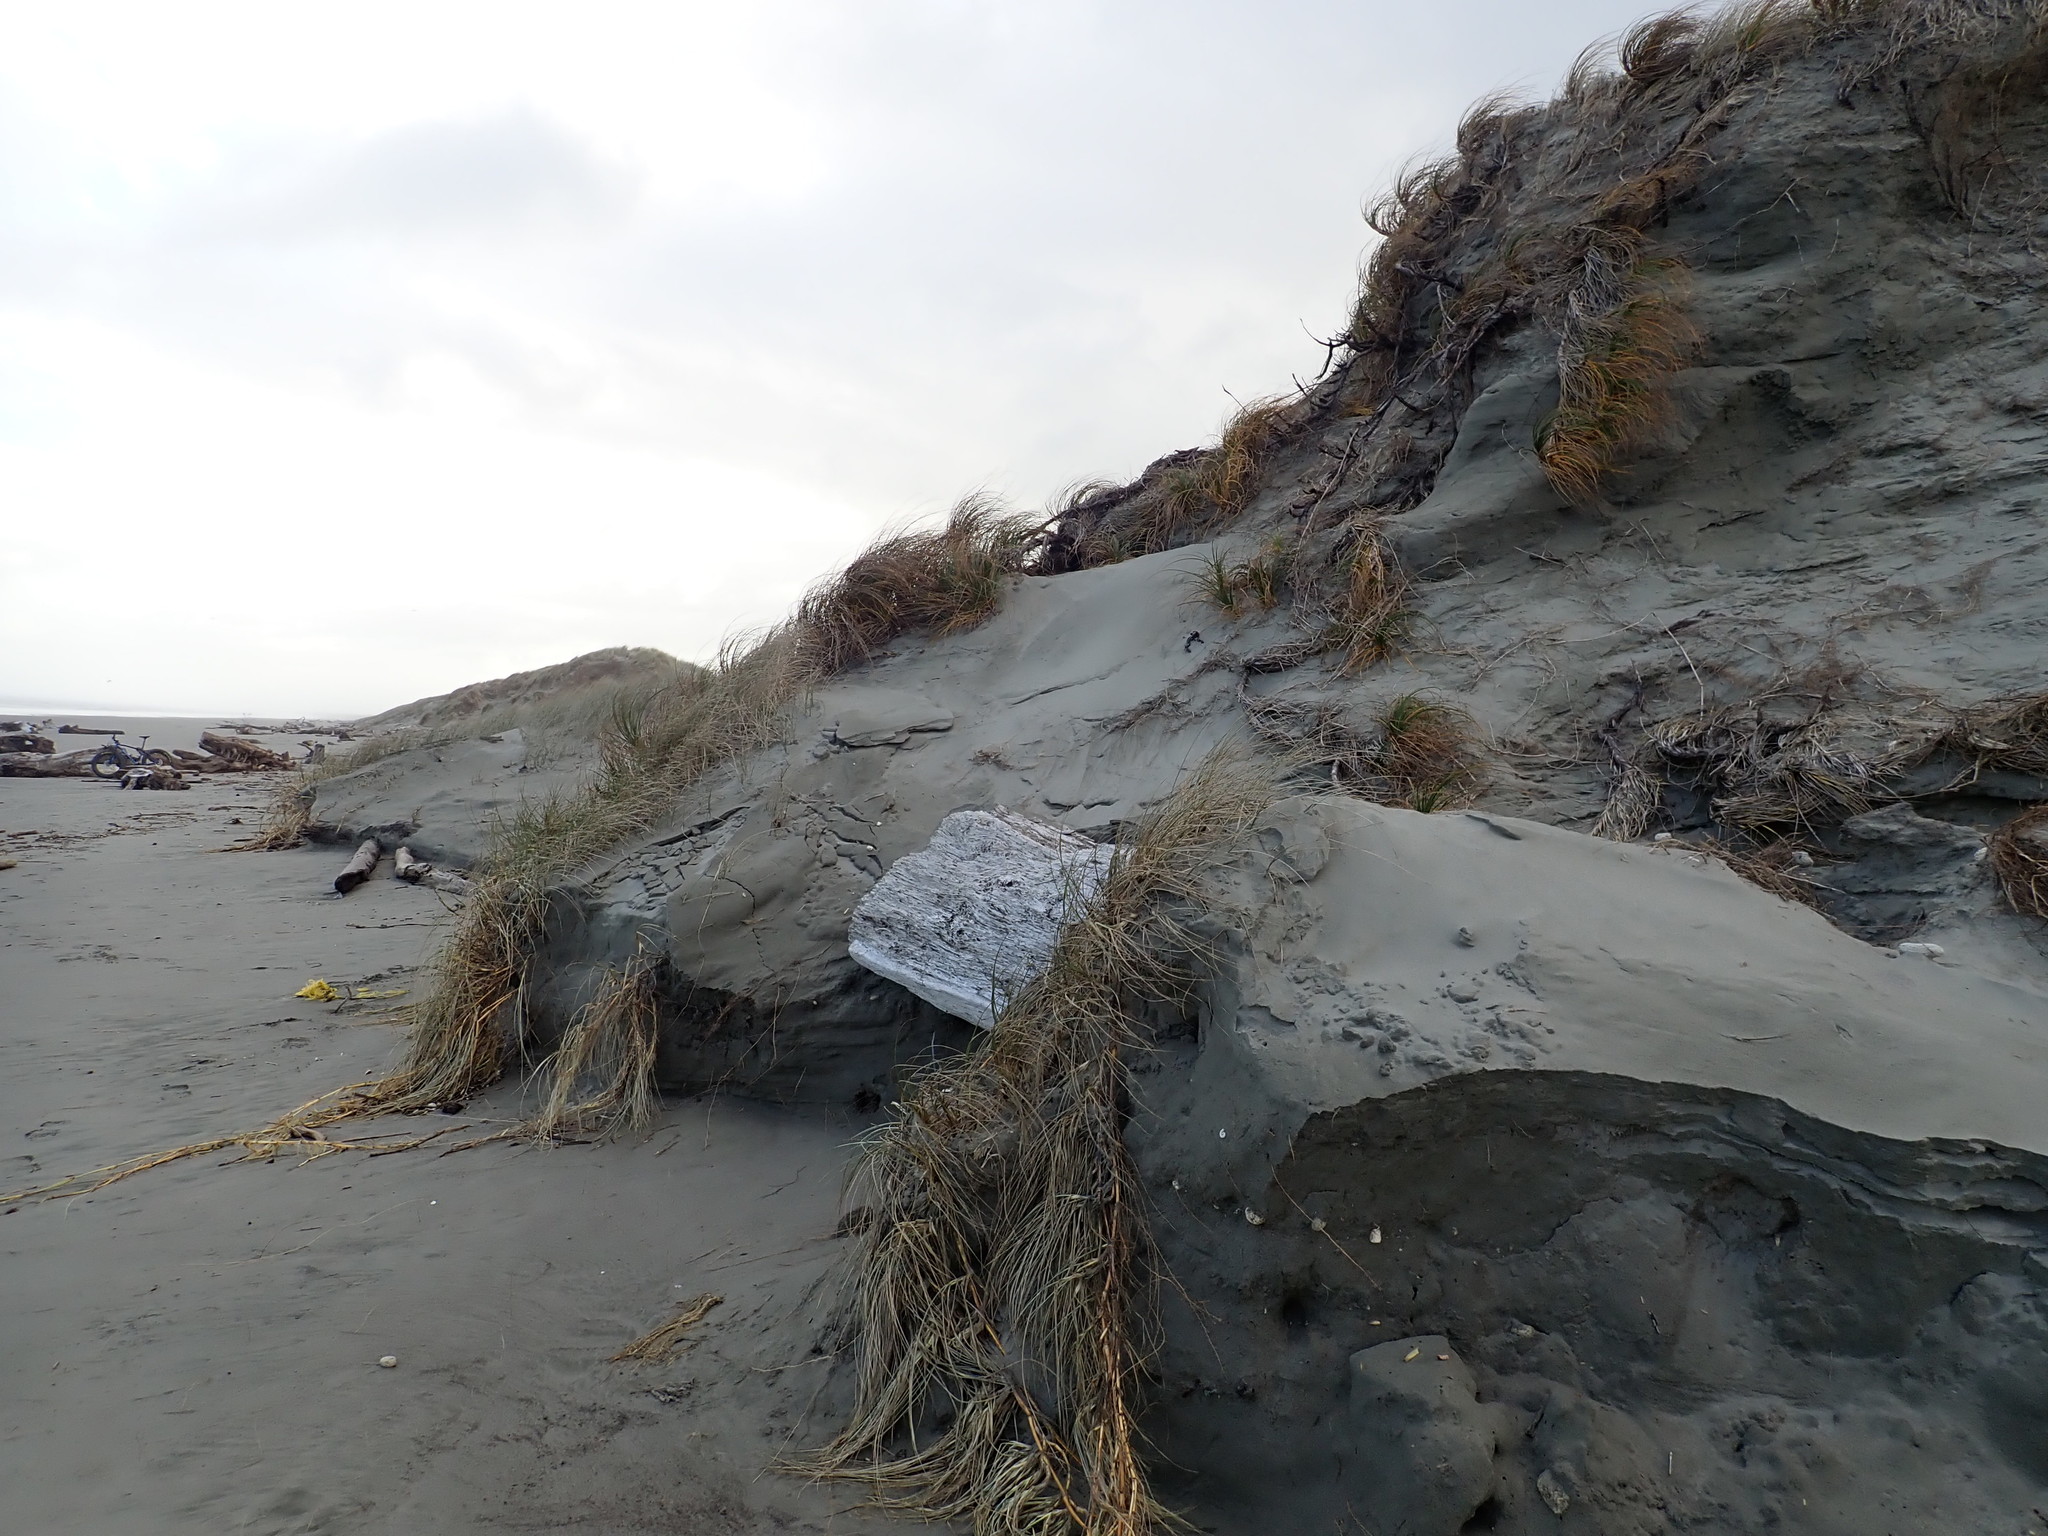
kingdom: Plantae
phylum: Tracheophyta
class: Liliopsida
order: Poales
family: Cyperaceae
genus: Ficinia
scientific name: Ficinia spiralis
